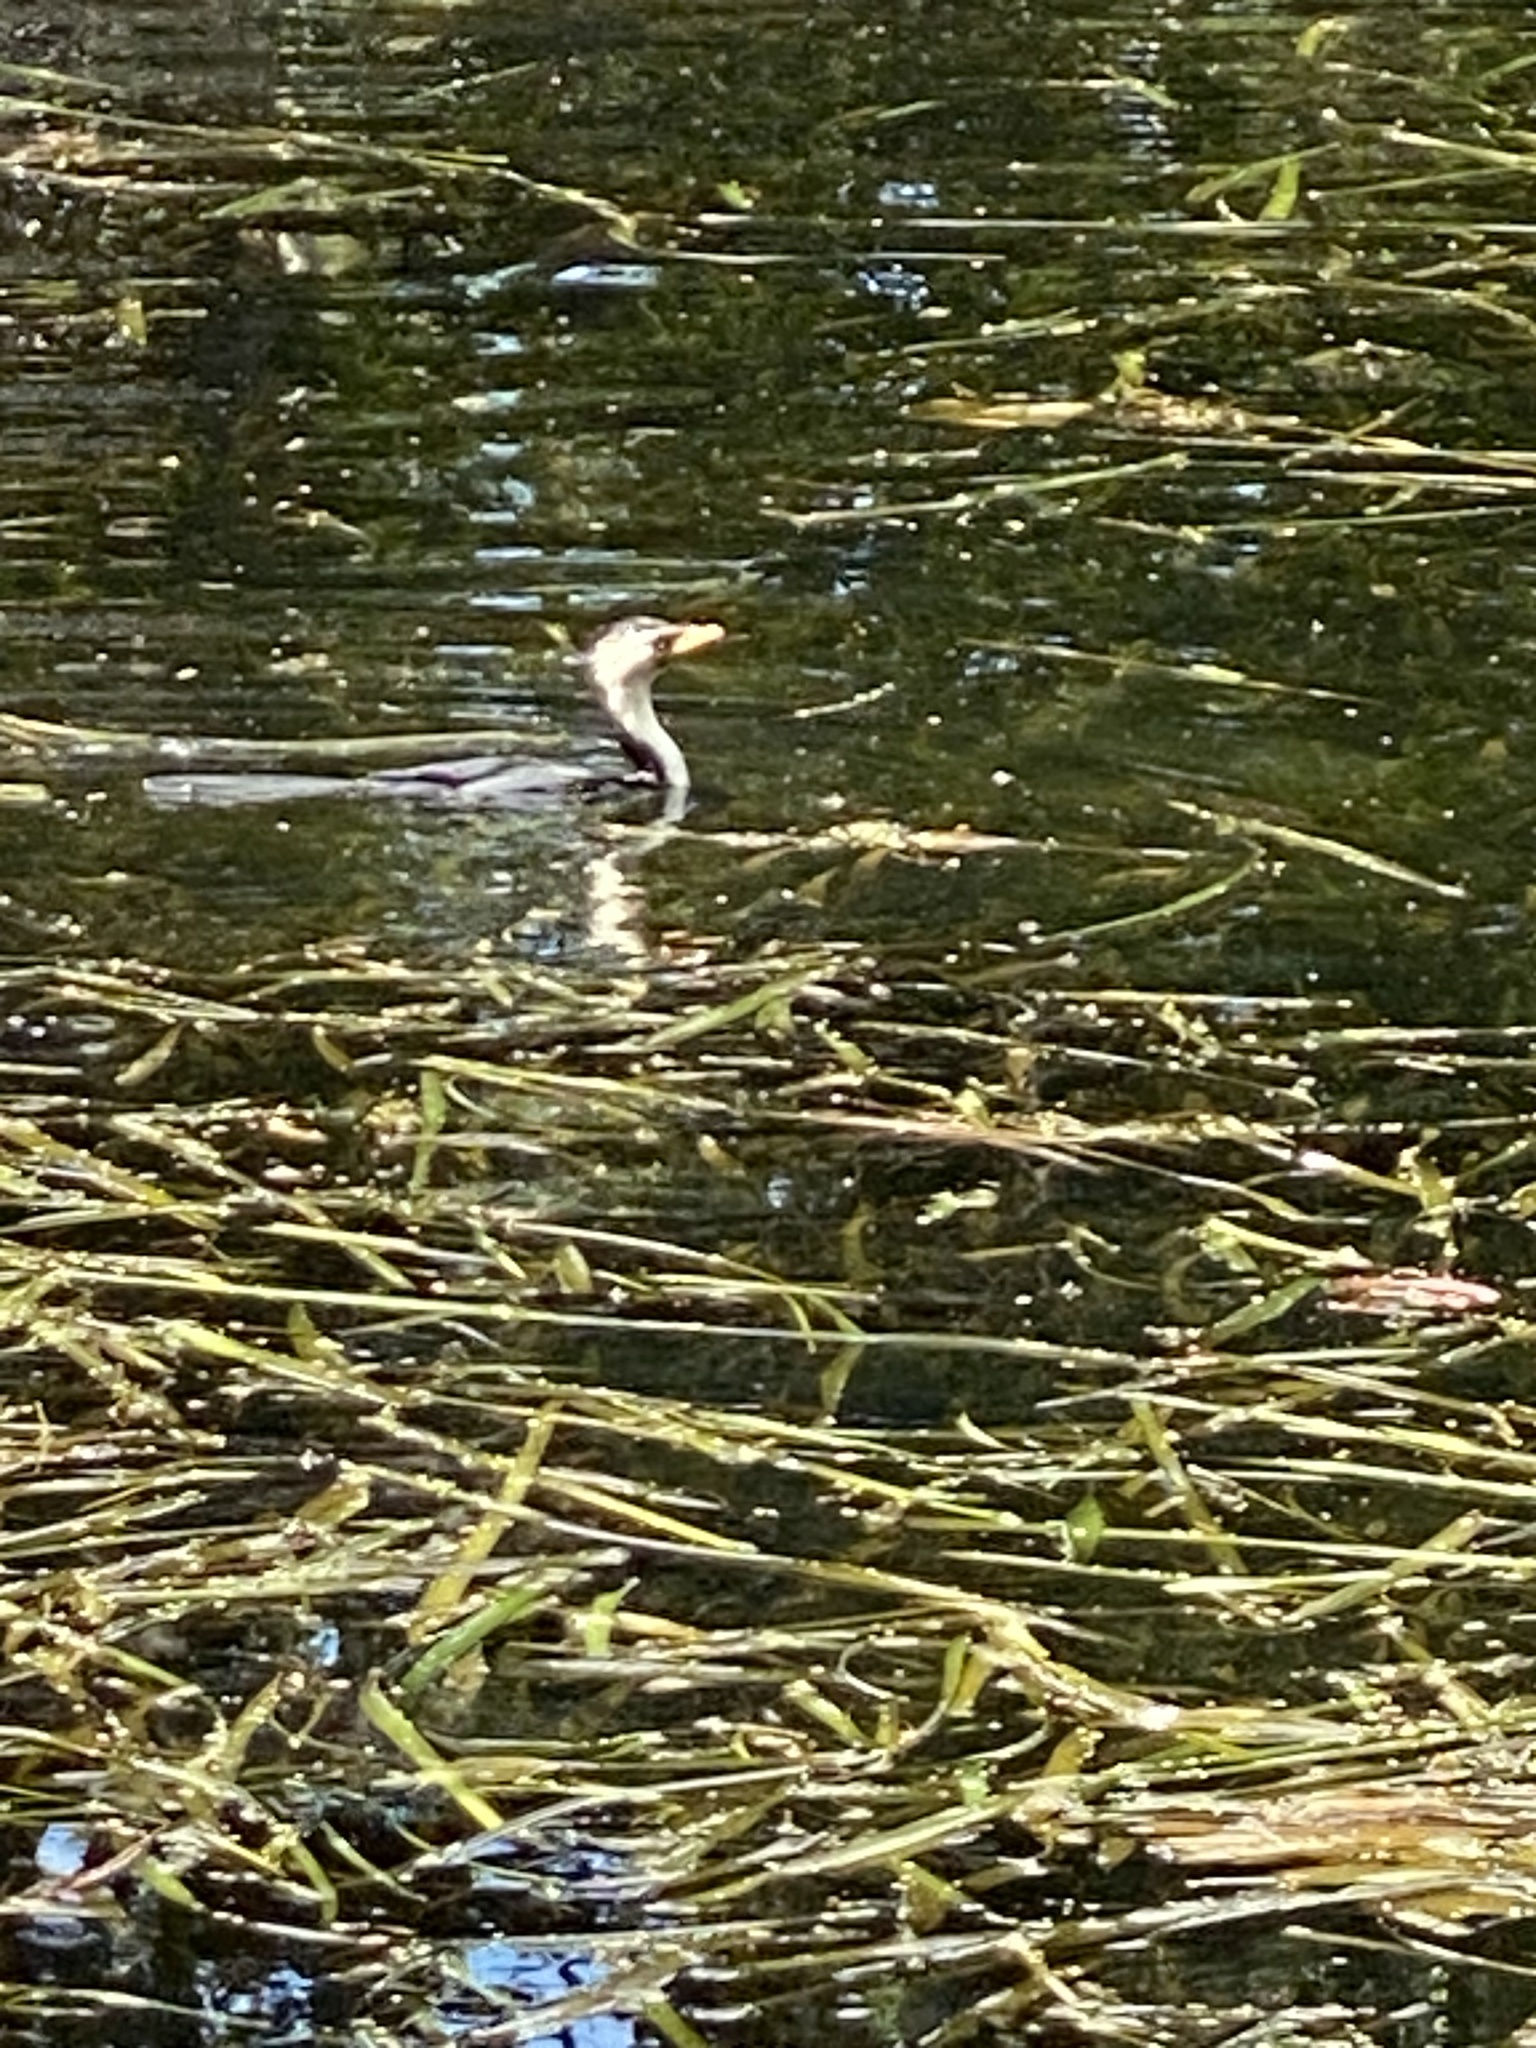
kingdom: Animalia
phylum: Chordata
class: Aves
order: Suliformes
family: Phalacrocoracidae
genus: Microcarbo
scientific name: Microcarbo melanoleucos
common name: Little pied cormorant
